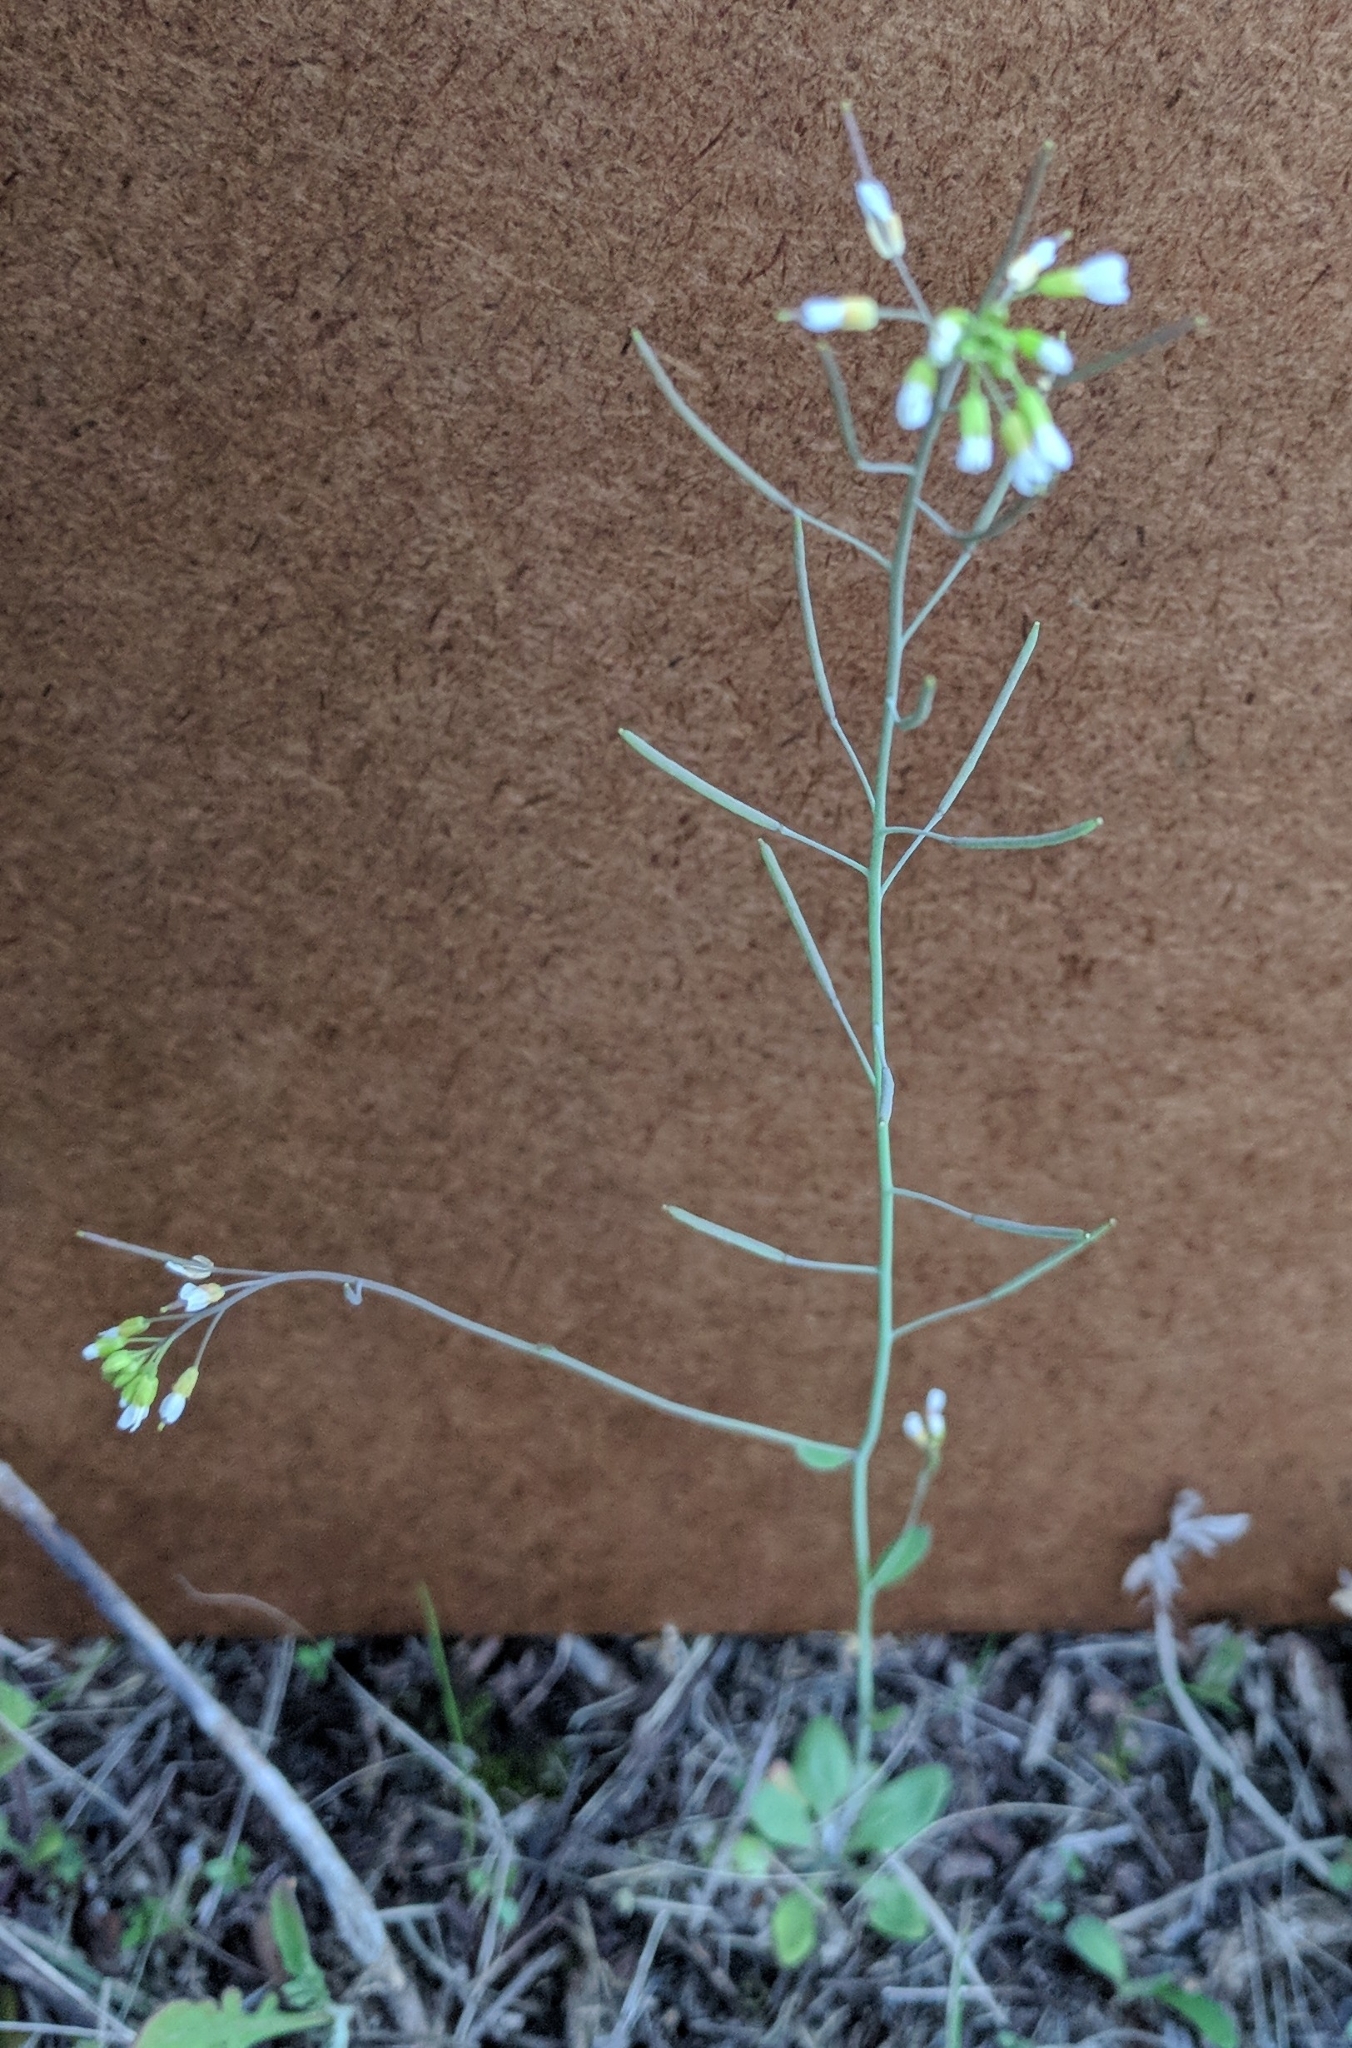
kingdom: Plantae
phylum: Tracheophyta
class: Magnoliopsida
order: Brassicales
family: Brassicaceae
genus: Arabidopsis
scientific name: Arabidopsis thaliana
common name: Thale cress
